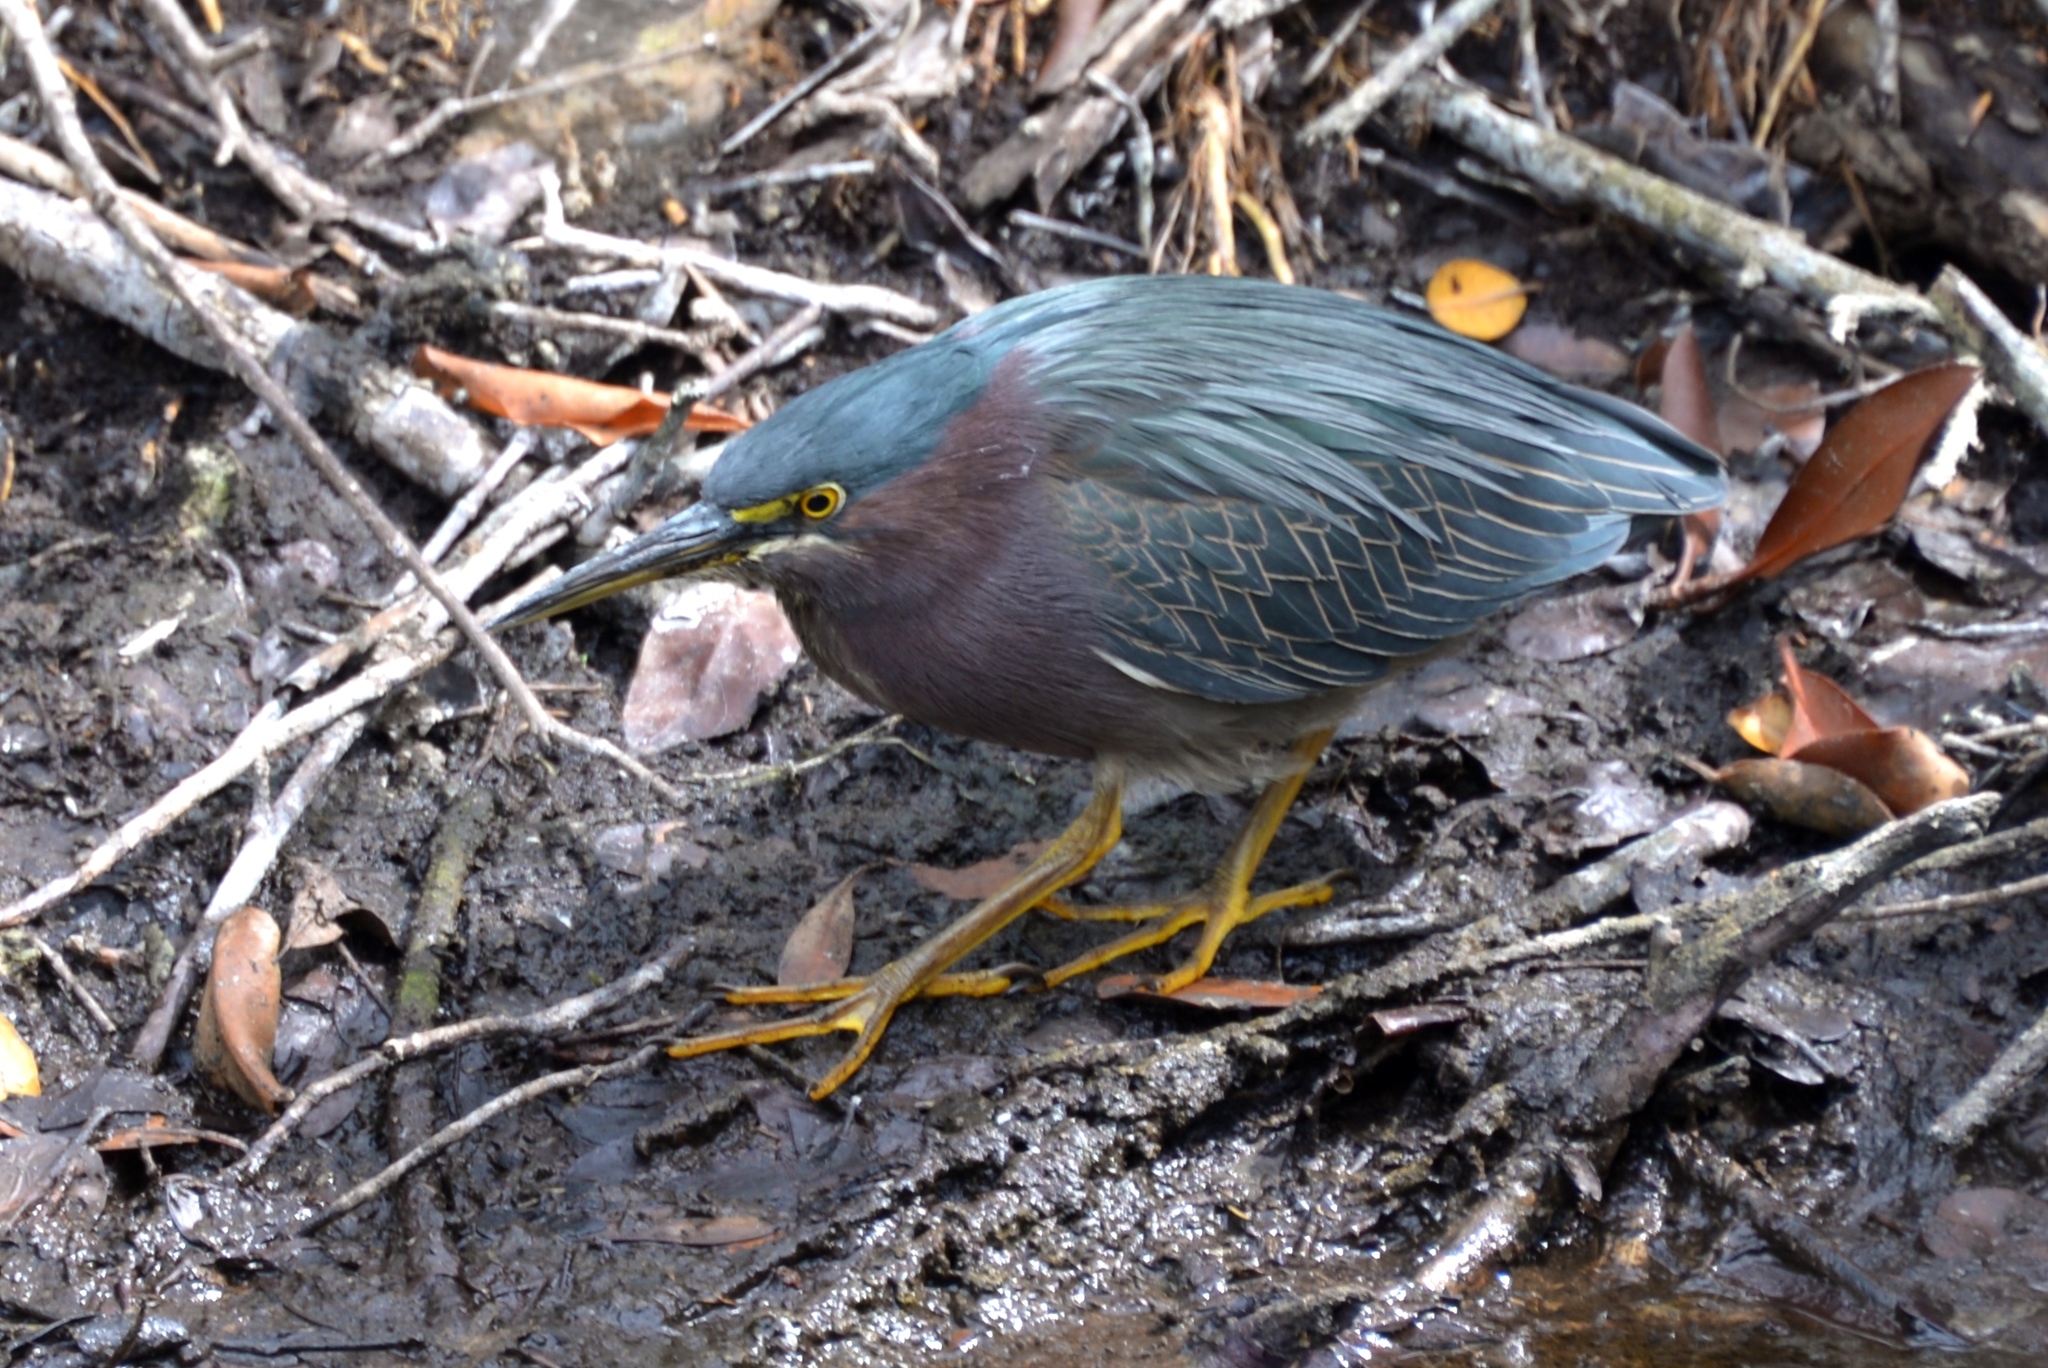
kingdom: Animalia
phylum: Chordata
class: Aves
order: Pelecaniformes
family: Ardeidae
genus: Butorides
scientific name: Butorides virescens
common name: Green heron
